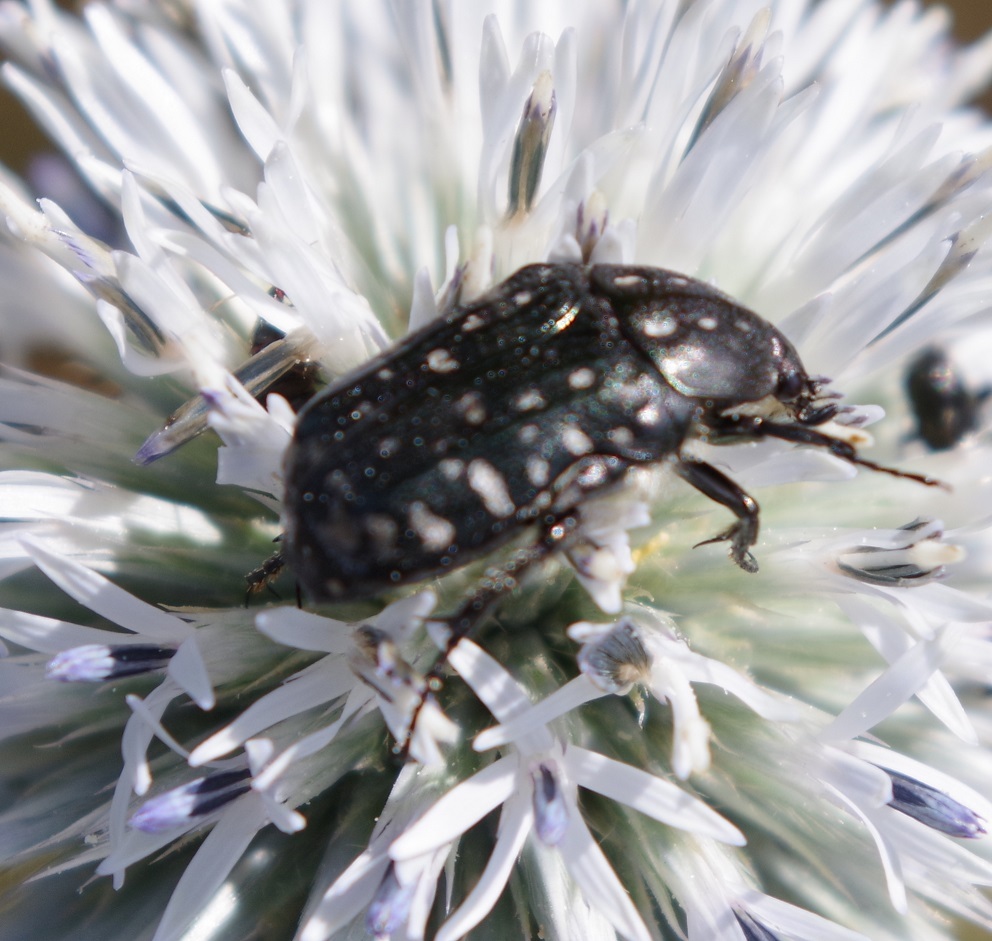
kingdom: Animalia
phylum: Arthropoda
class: Insecta
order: Coleoptera
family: Scarabaeidae
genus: Oxythyrea
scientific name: Oxythyrea funesta
